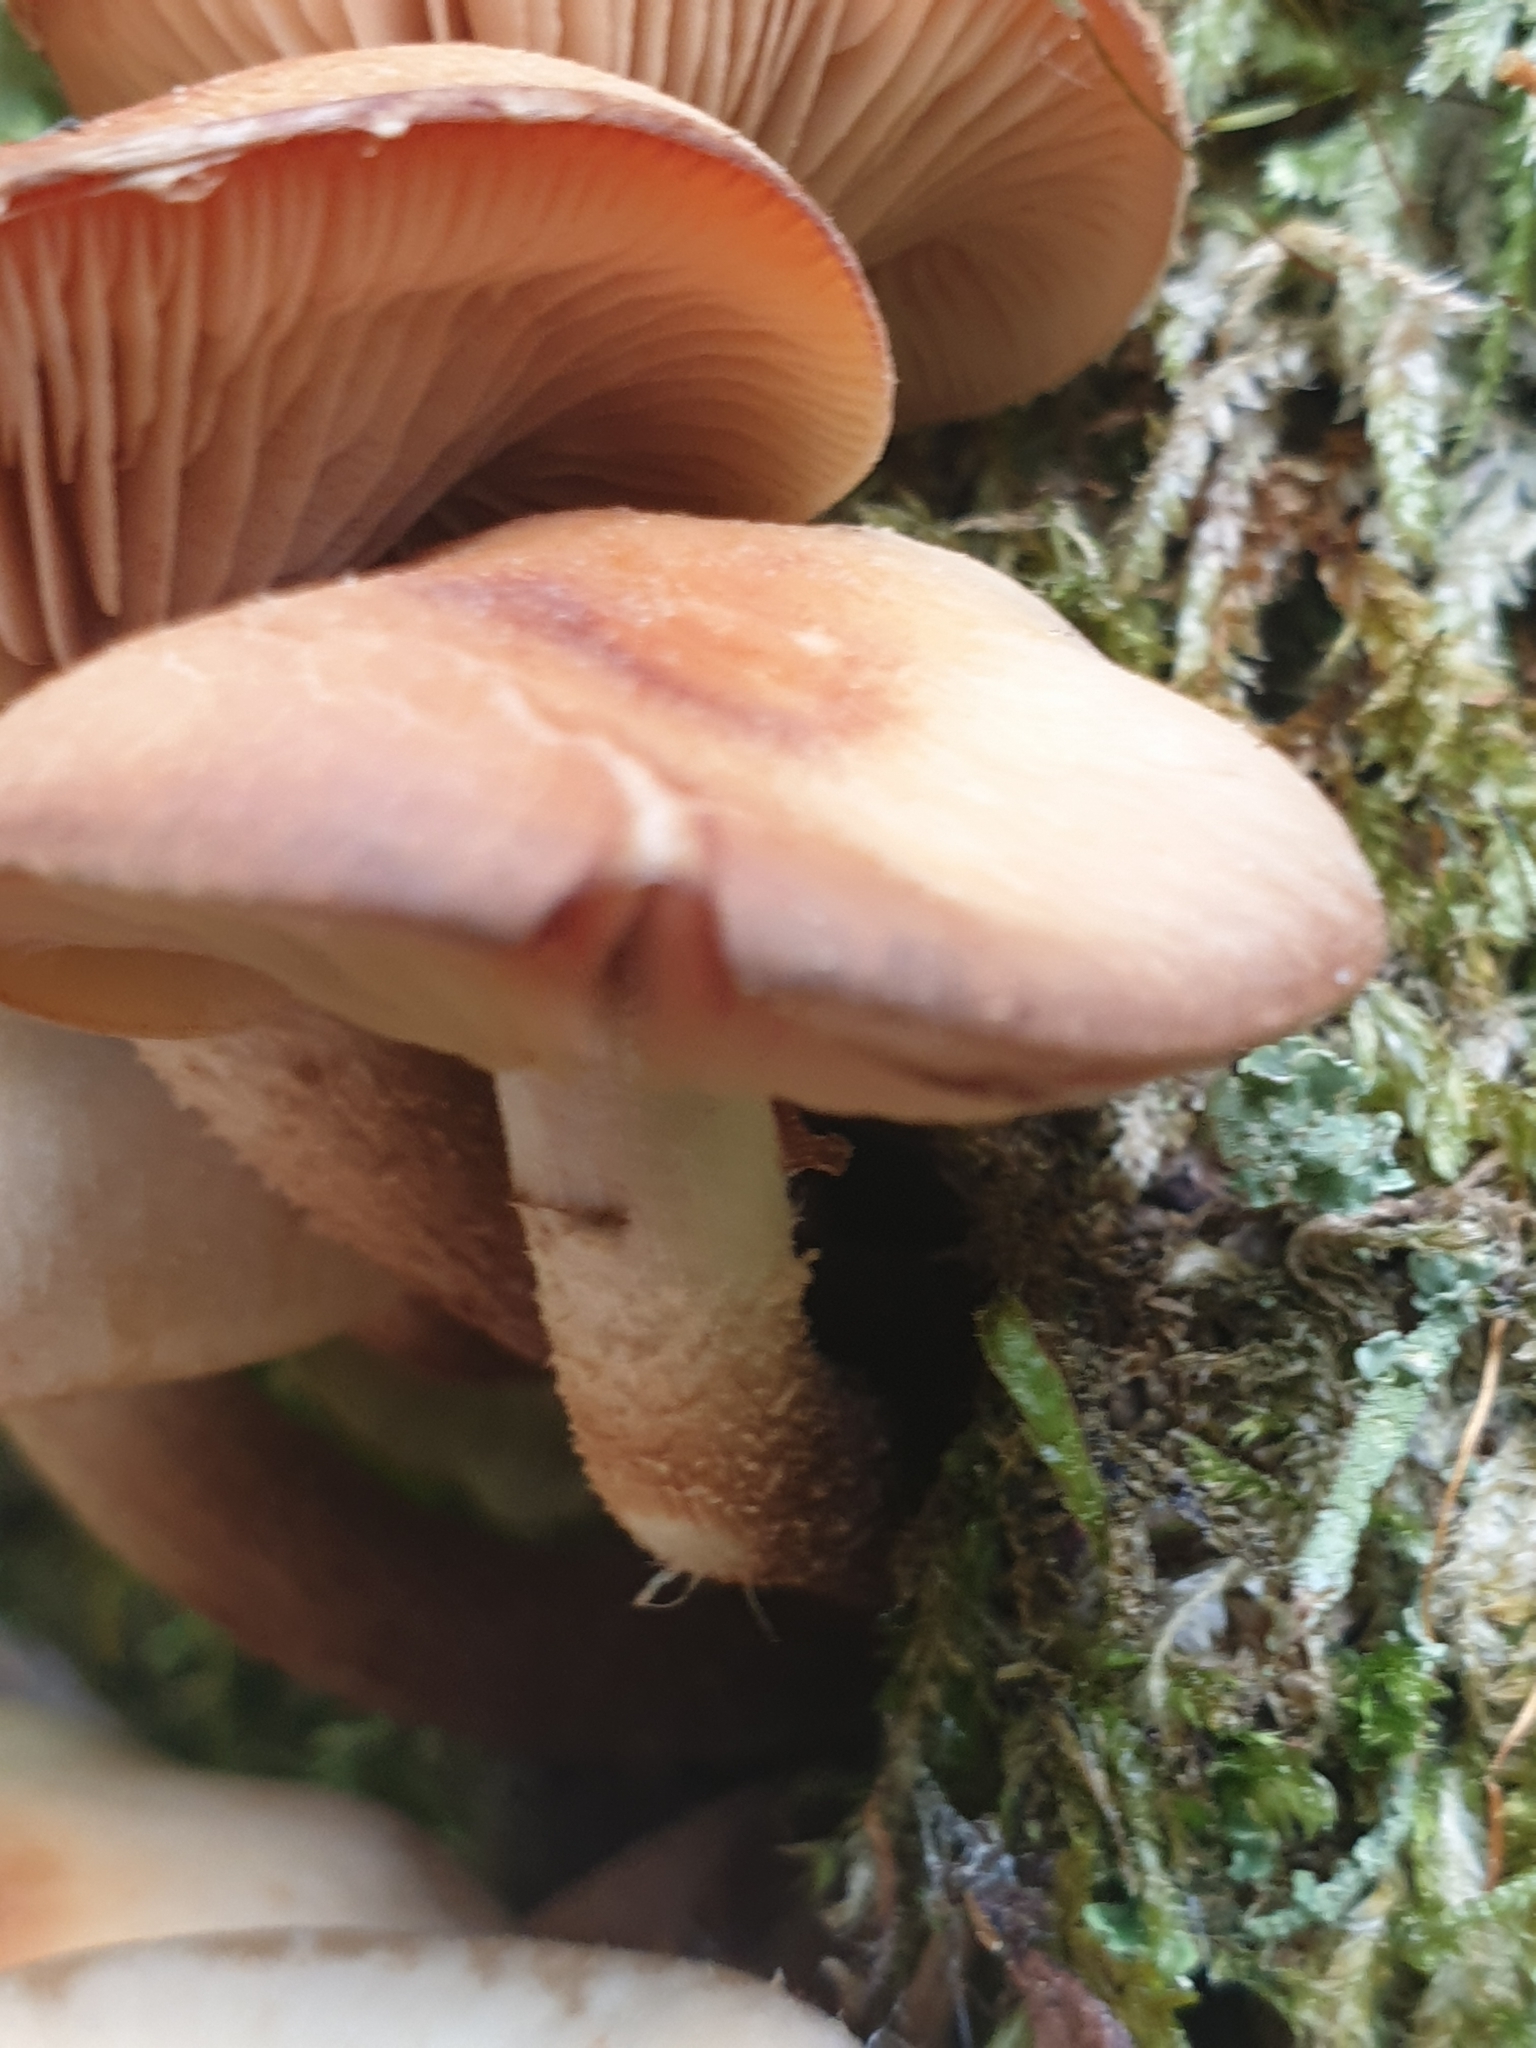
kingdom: Fungi
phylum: Basidiomycota
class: Agaricomycetes
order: Agaricales
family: Strophariaceae
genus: Kuehneromyces
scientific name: Kuehneromyces mutabilis
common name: Sheathed woodtuft
